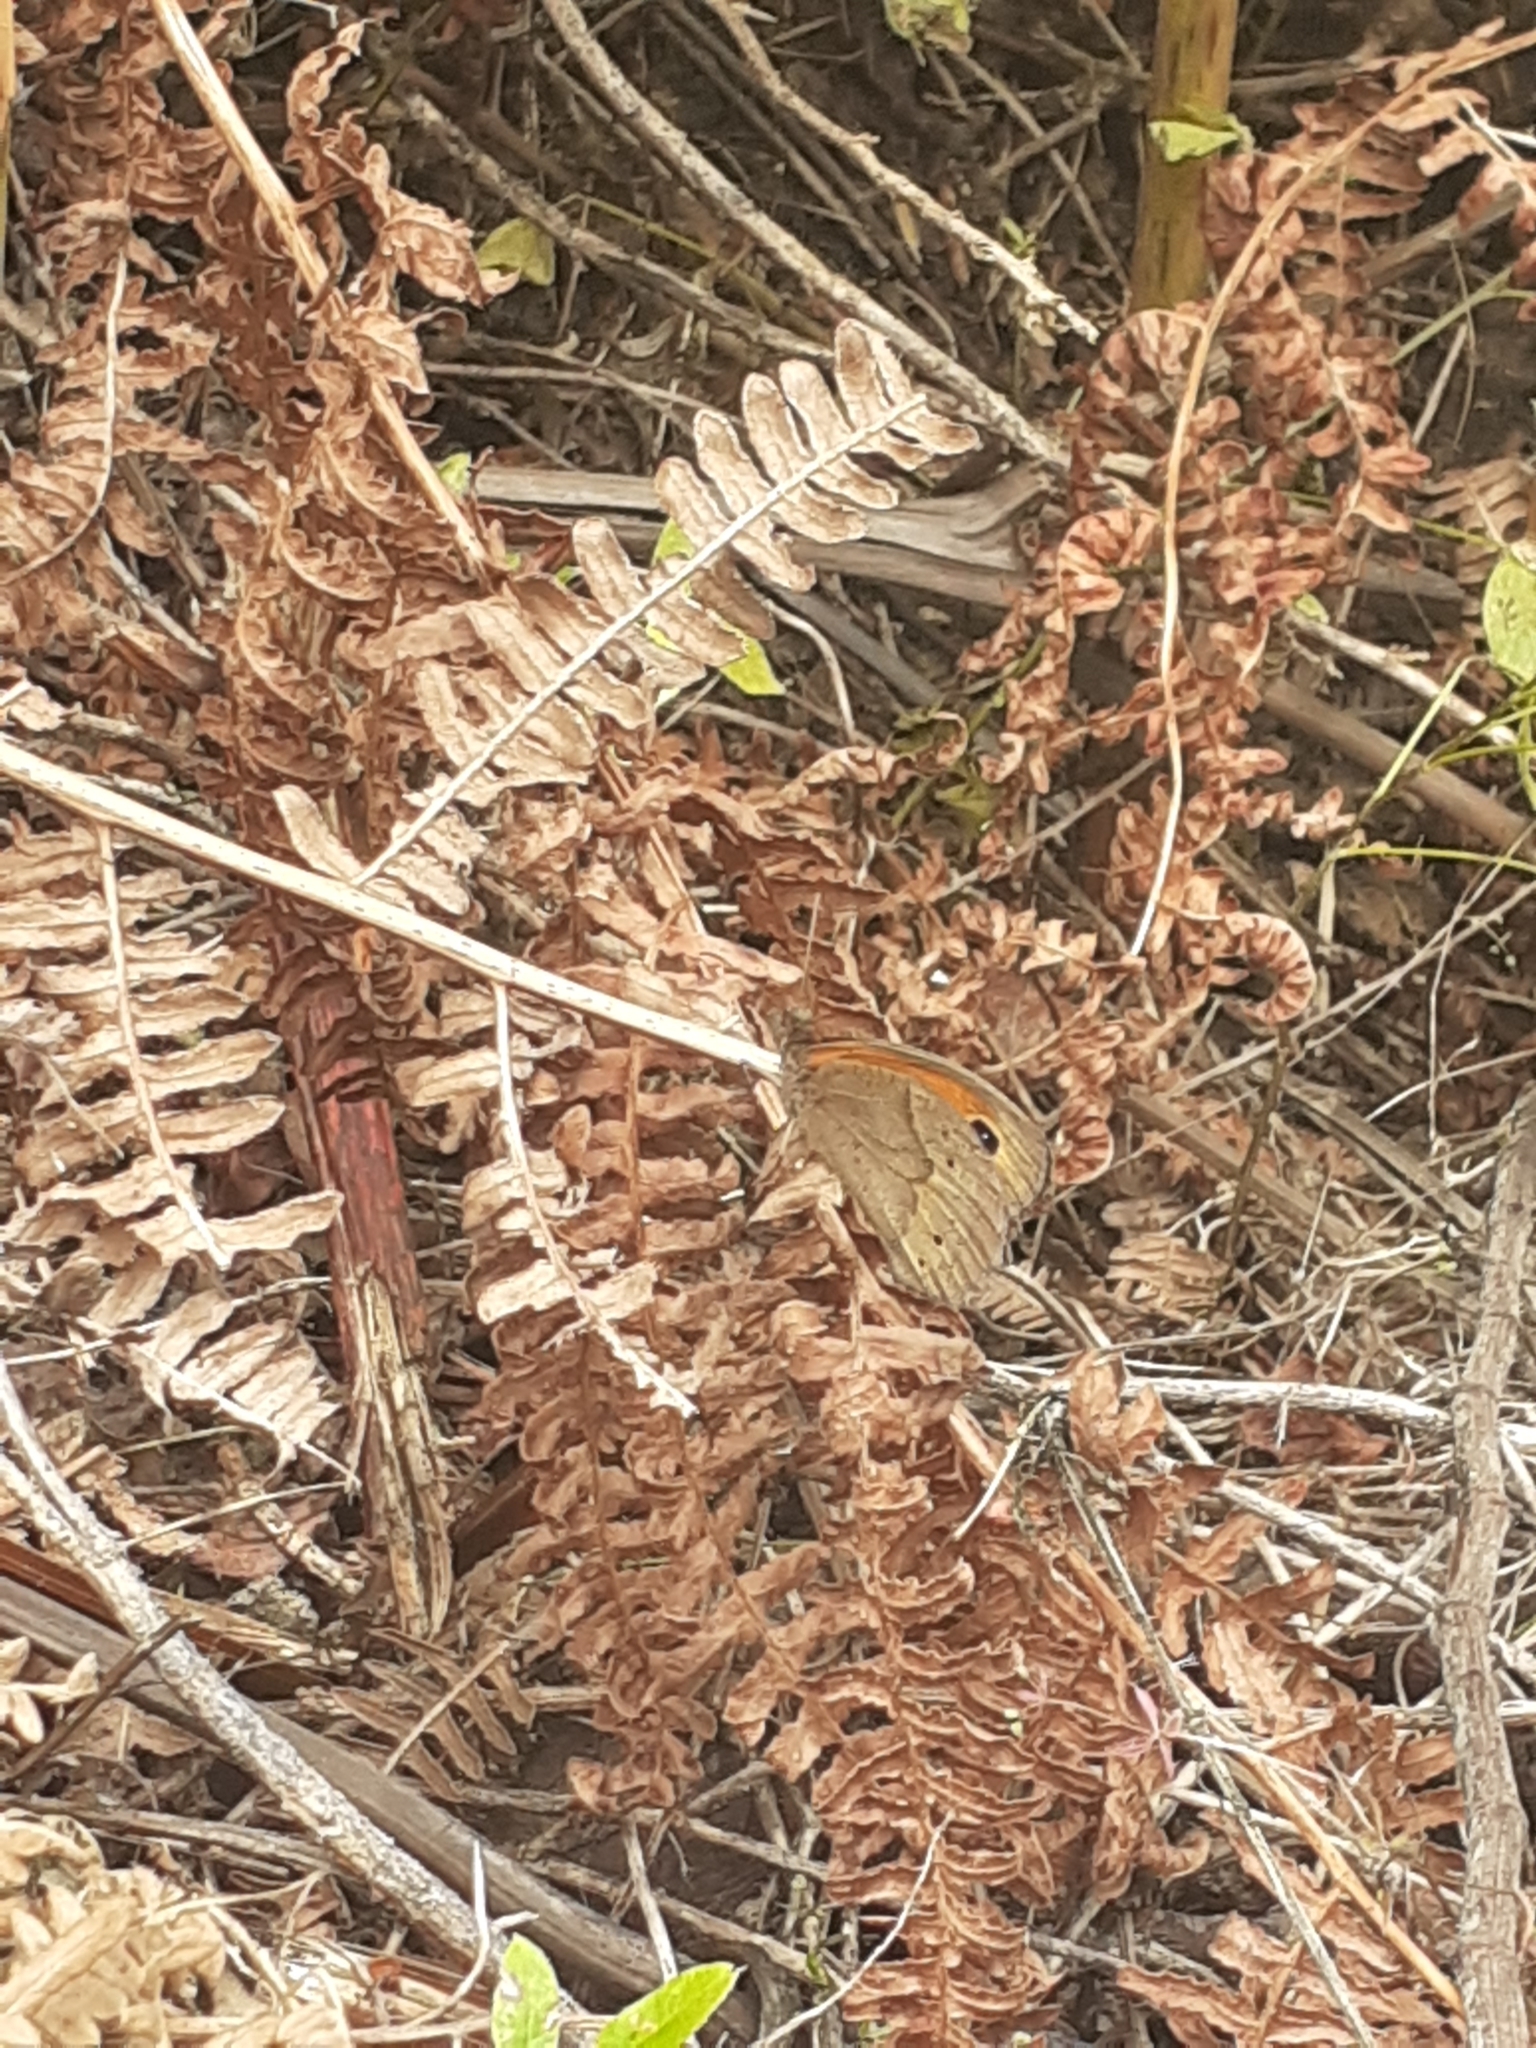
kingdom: Animalia
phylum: Arthropoda
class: Insecta
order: Lepidoptera
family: Nymphalidae
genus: Maniola
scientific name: Maniola jurtina
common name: Meadow brown
